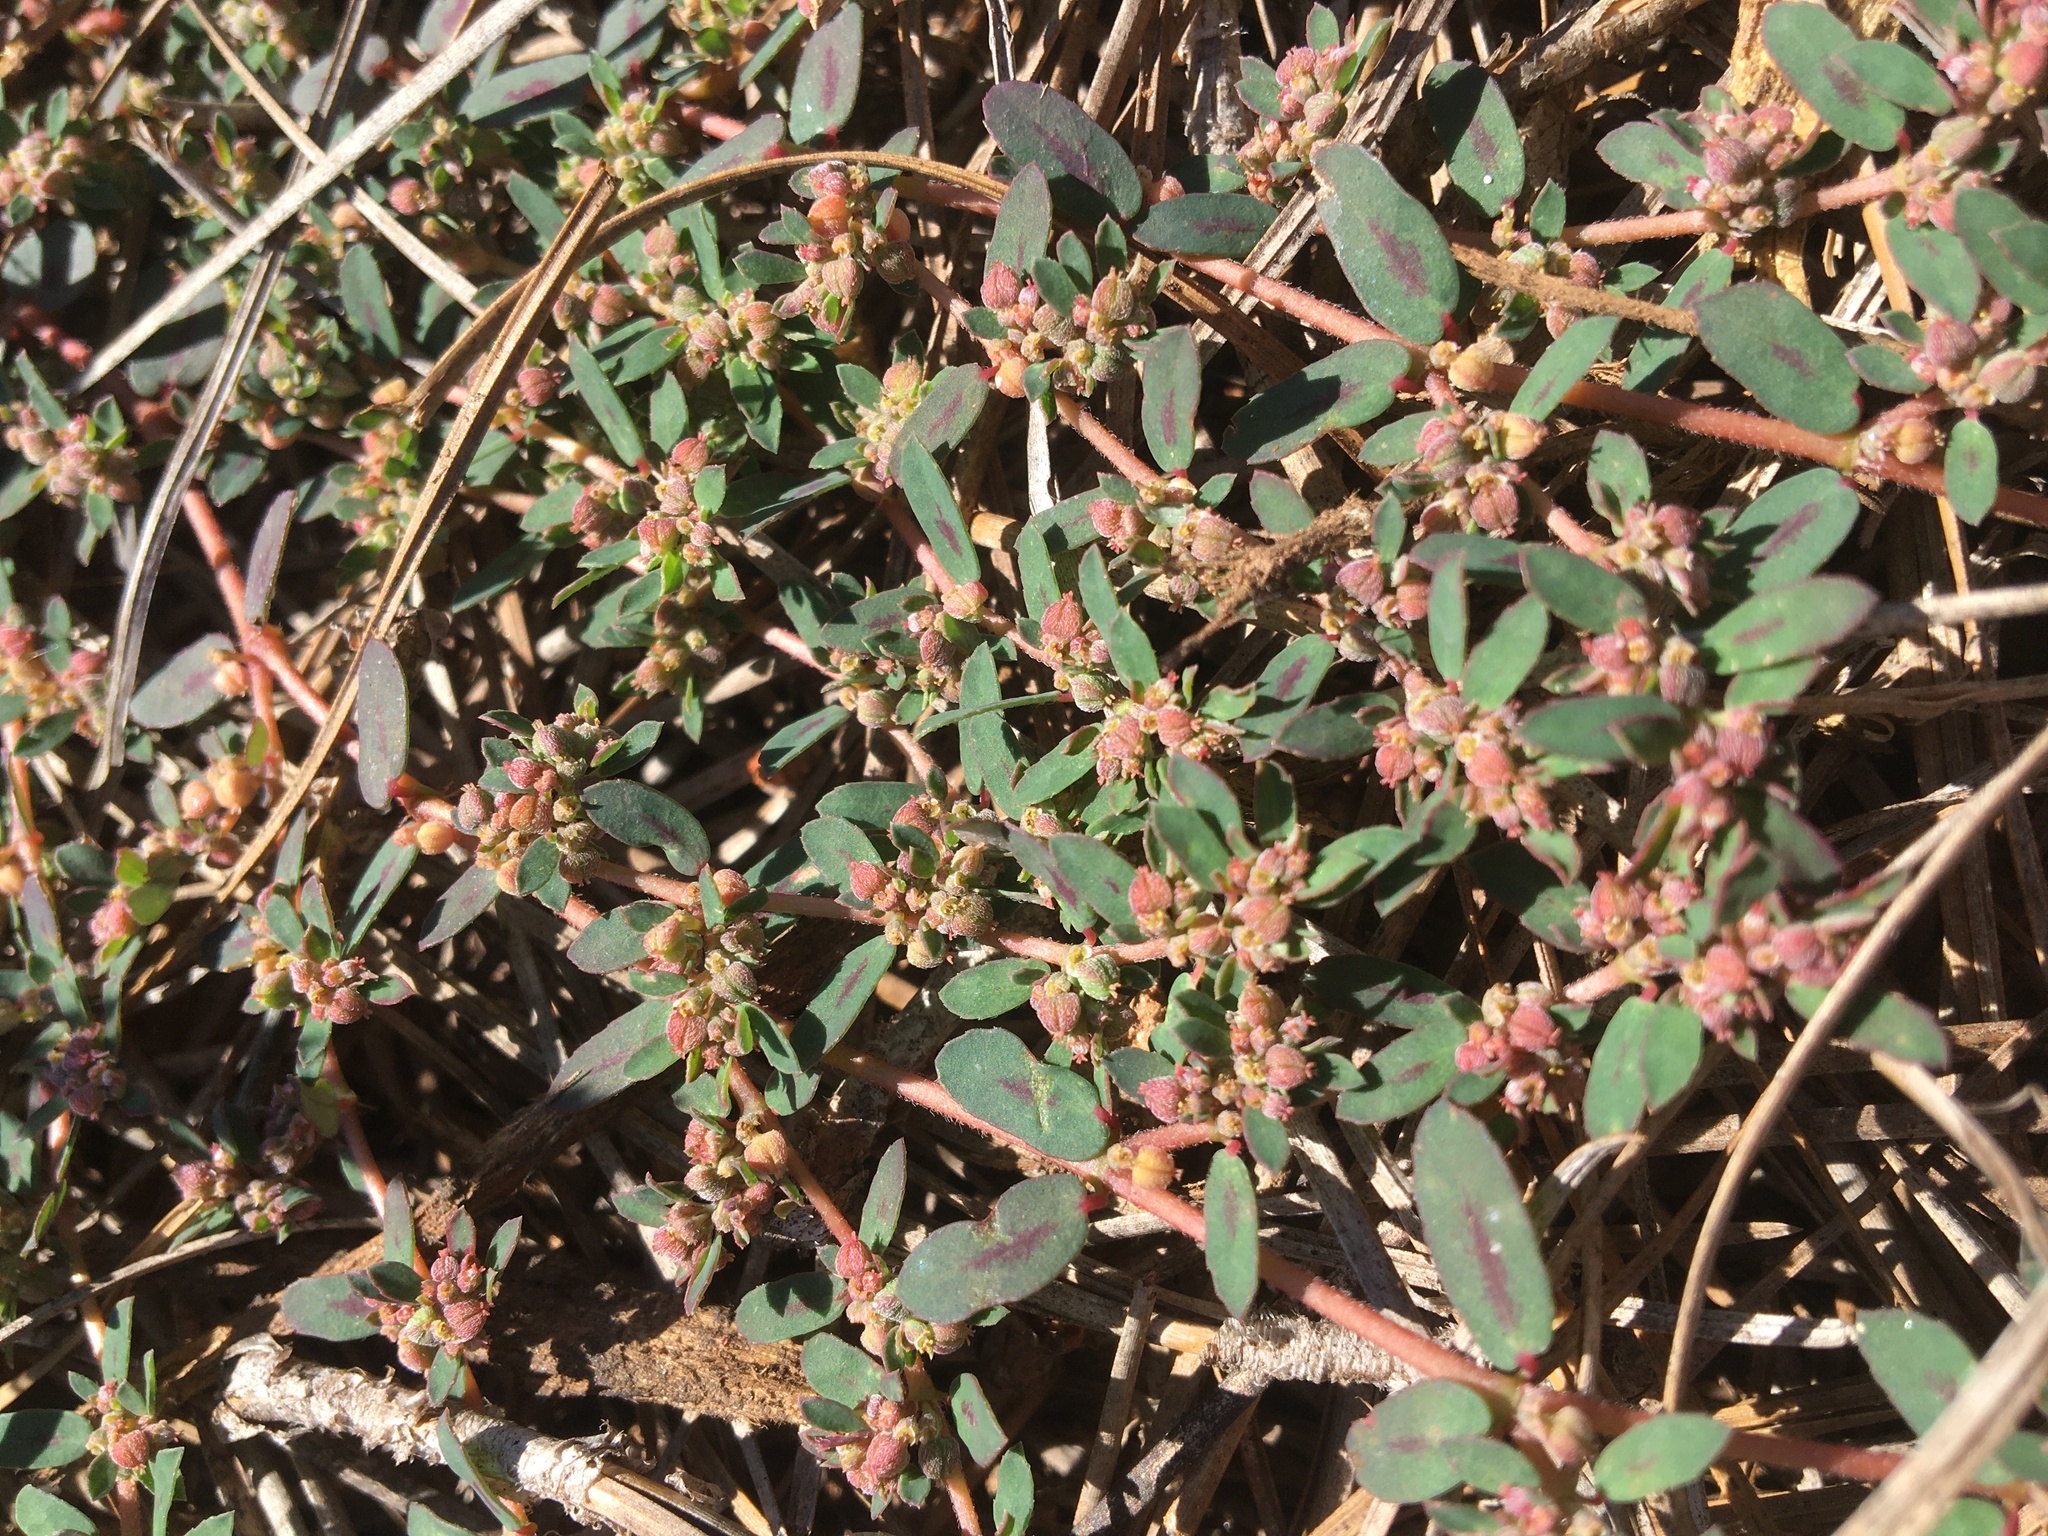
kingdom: Plantae
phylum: Tracheophyta
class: Magnoliopsida
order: Malpighiales
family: Euphorbiaceae
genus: Euphorbia
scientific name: Euphorbia maculata
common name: Spotted spurge
